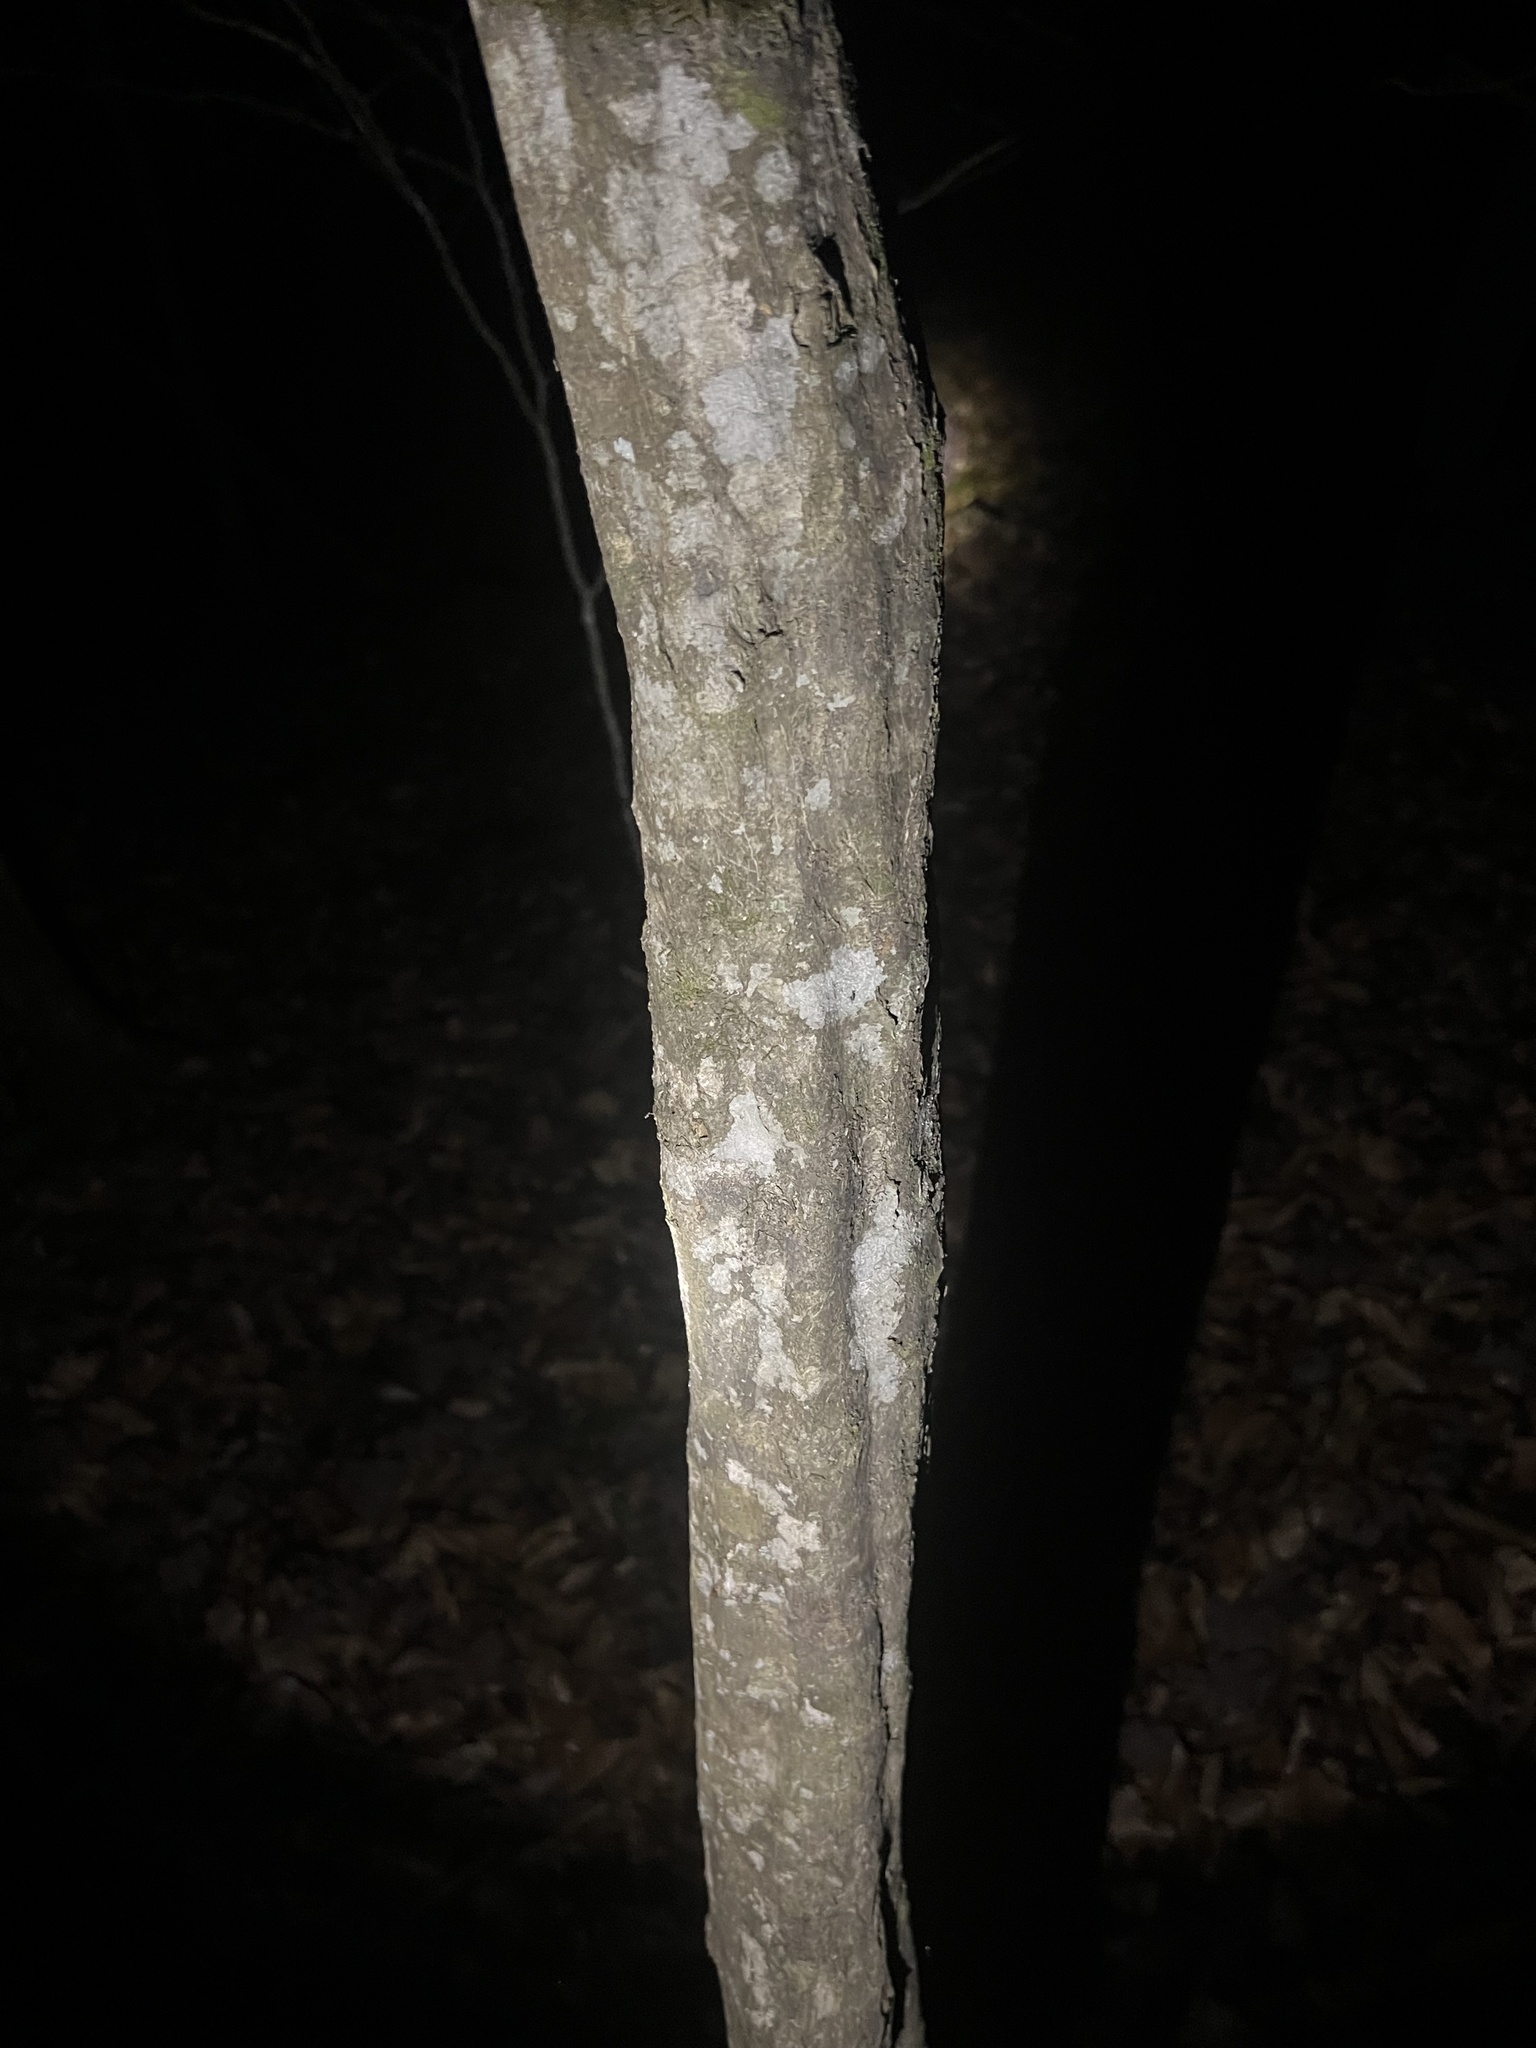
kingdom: Plantae
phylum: Tracheophyta
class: Magnoliopsida
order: Fagales
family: Betulaceae
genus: Carpinus
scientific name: Carpinus caroliniana
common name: American hornbeam
